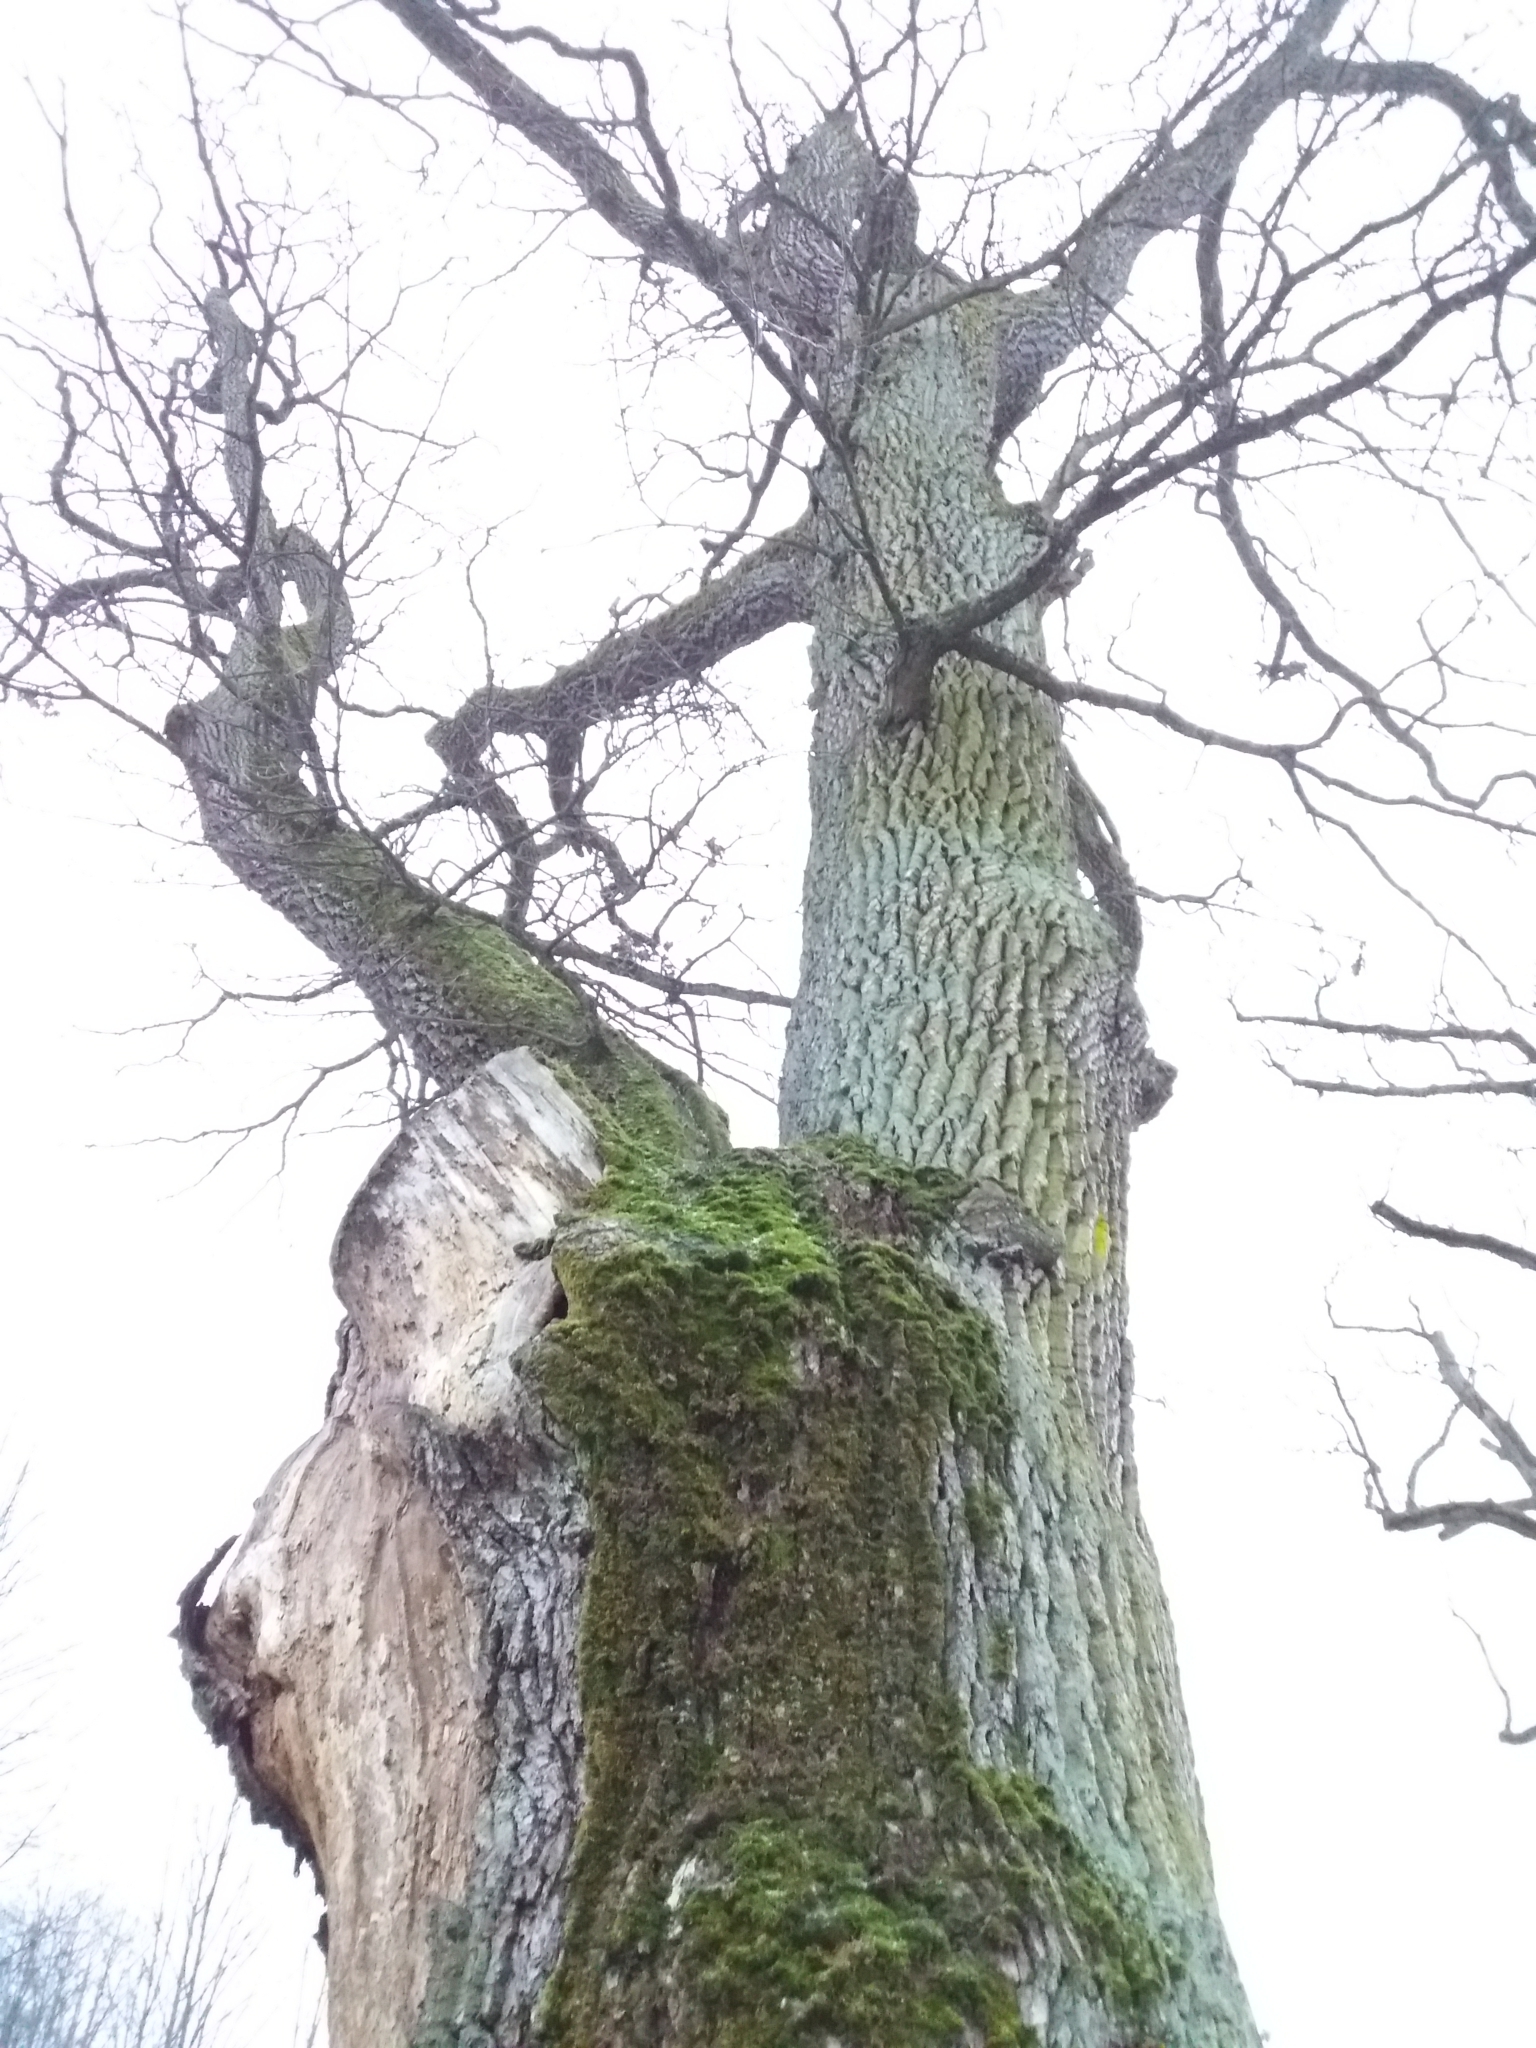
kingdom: Plantae
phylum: Tracheophyta
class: Magnoliopsida
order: Fagales
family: Fagaceae
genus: Quercus
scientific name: Quercus robur
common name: Pedunculate oak
